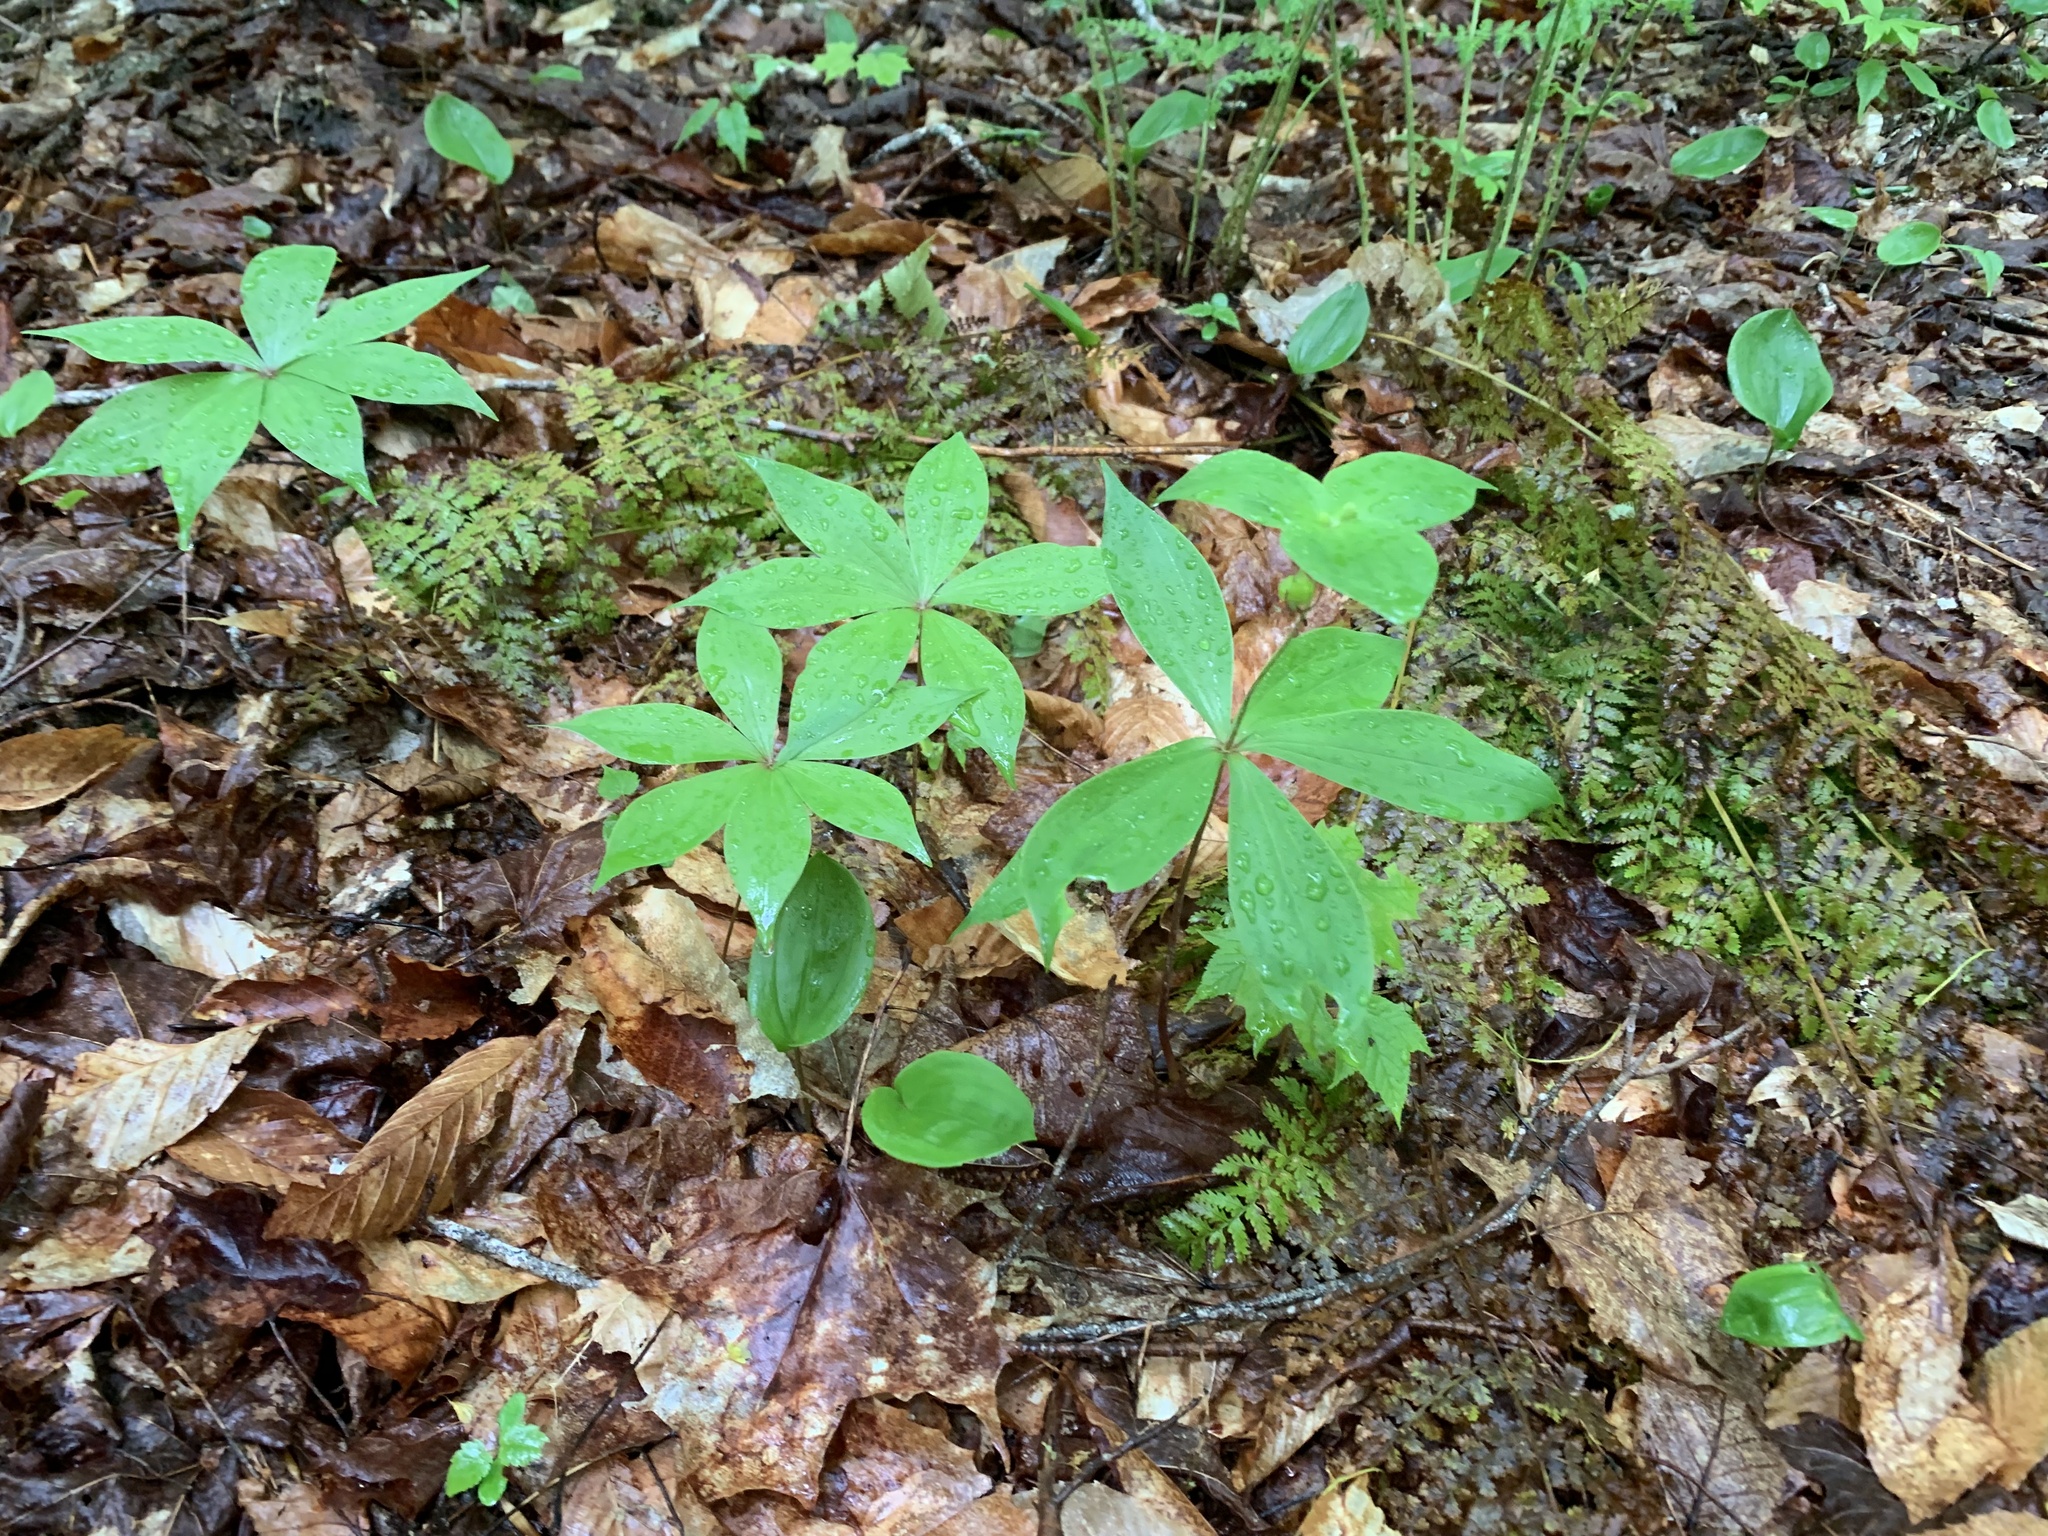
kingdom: Plantae
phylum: Tracheophyta
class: Liliopsida
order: Liliales
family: Liliaceae
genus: Medeola
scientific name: Medeola virginiana
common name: Indian cucumber-root
